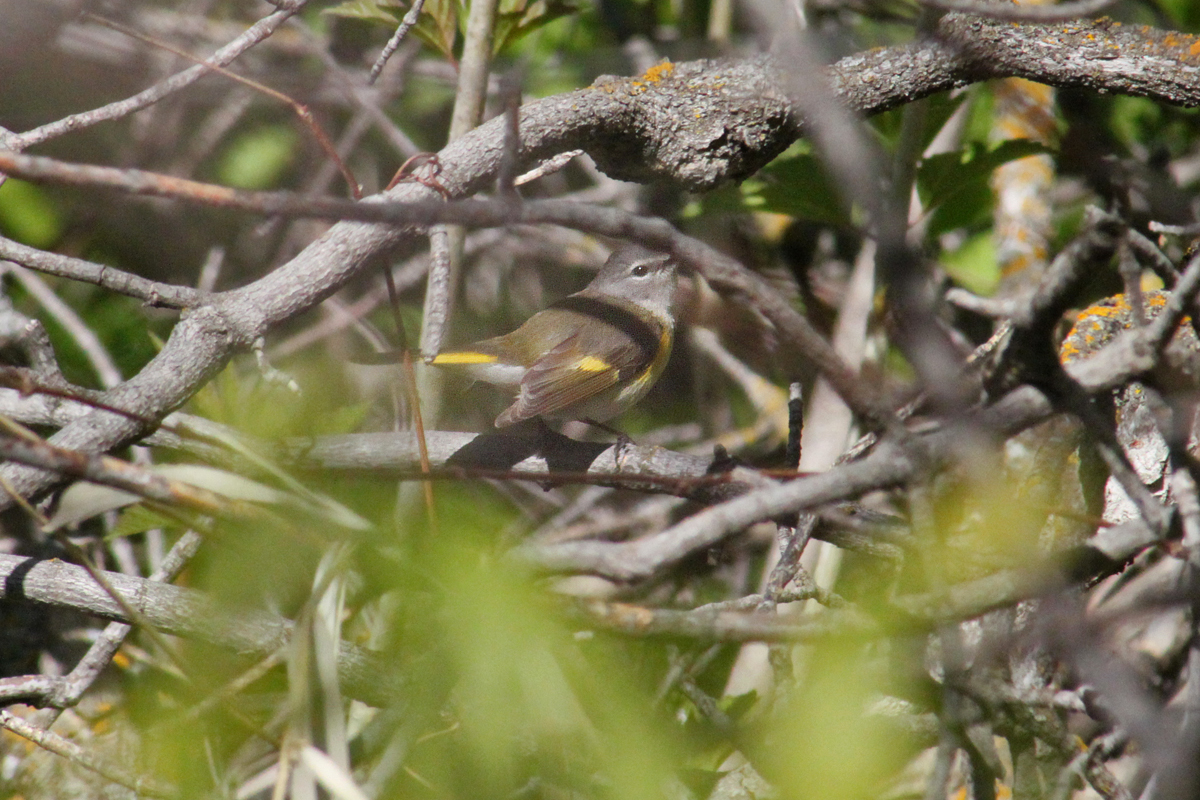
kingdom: Animalia
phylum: Chordata
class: Aves
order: Passeriformes
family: Parulidae
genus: Setophaga
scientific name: Setophaga ruticilla
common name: American redstart
